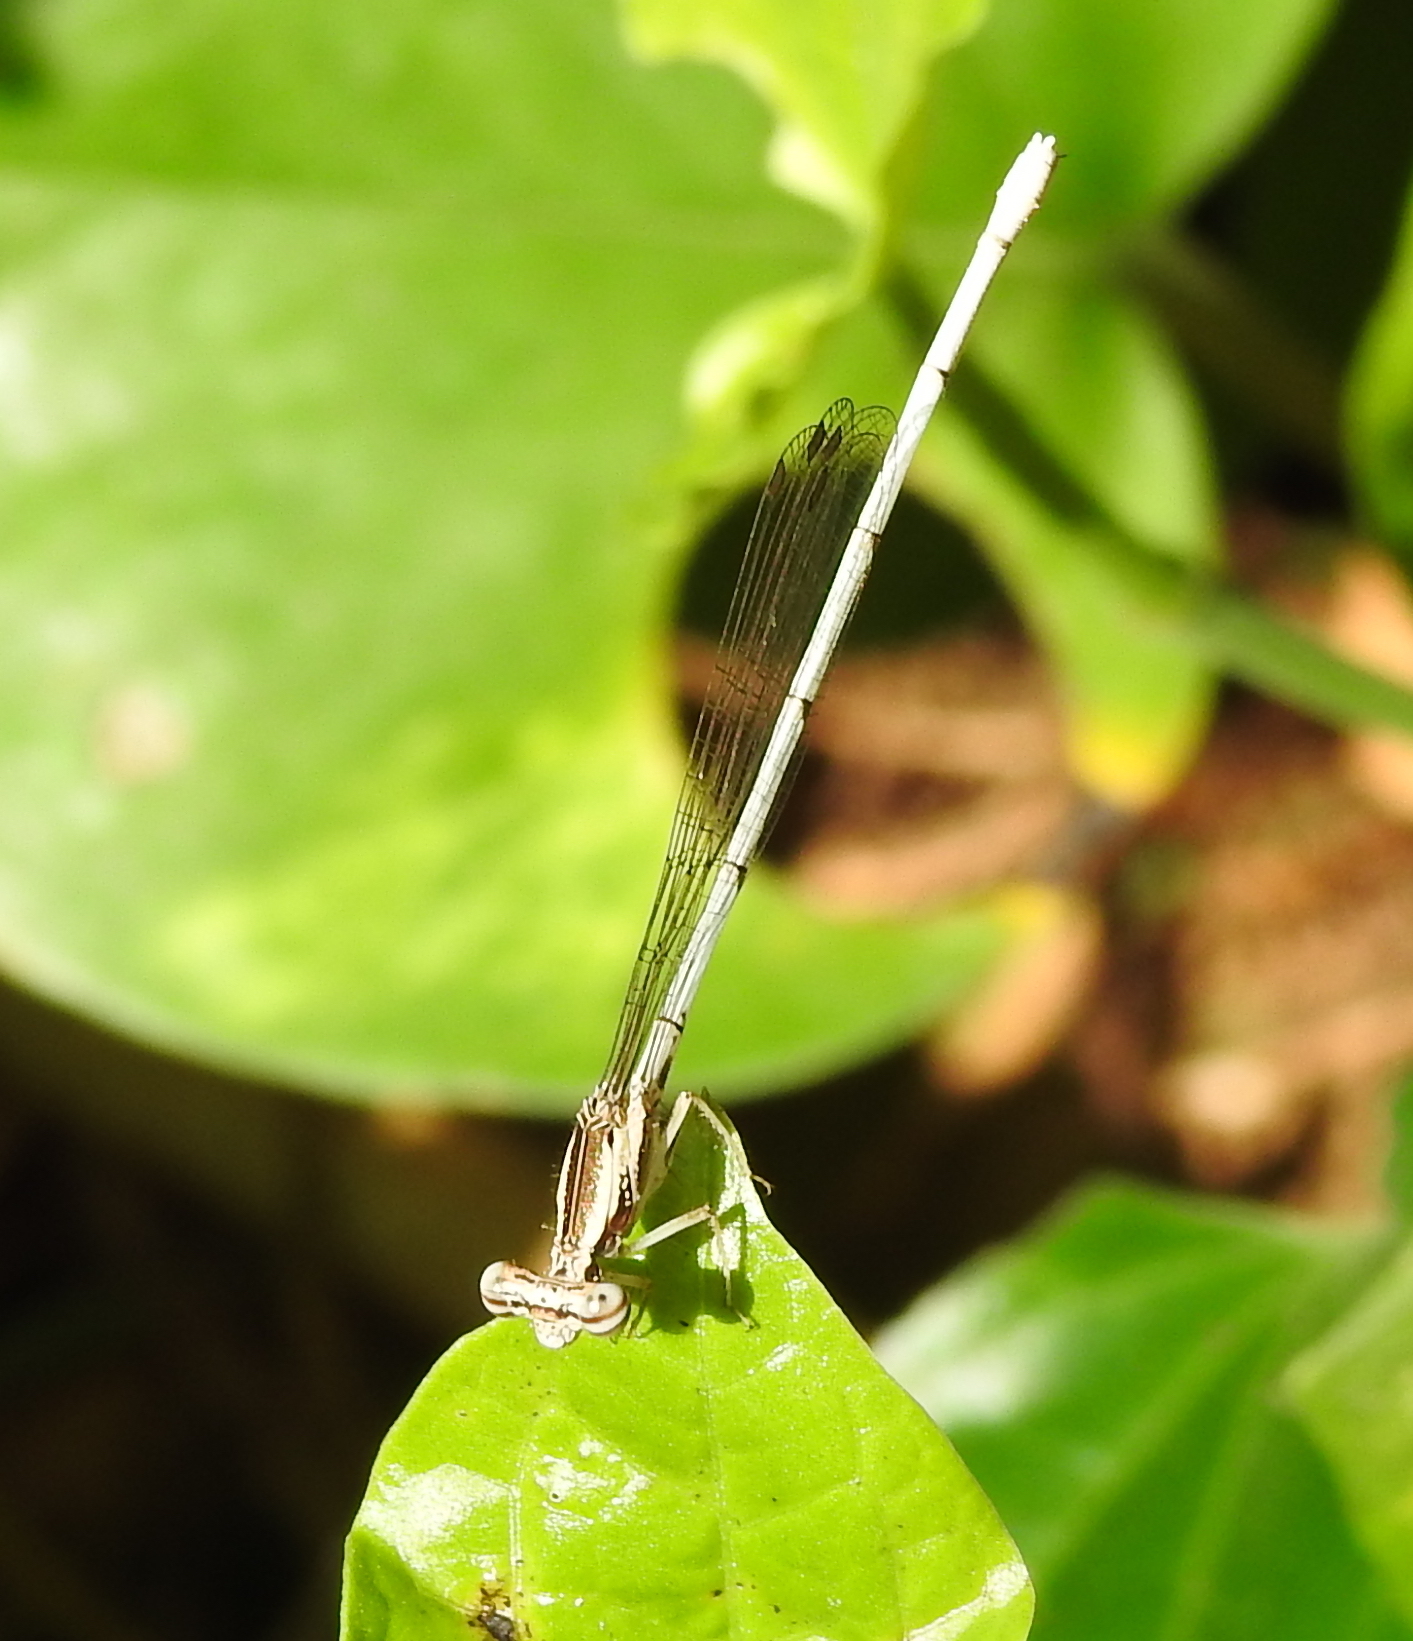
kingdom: Animalia
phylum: Arthropoda
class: Insecta
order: Odonata
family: Platycnemididae
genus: Copera
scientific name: Copera marginipes
